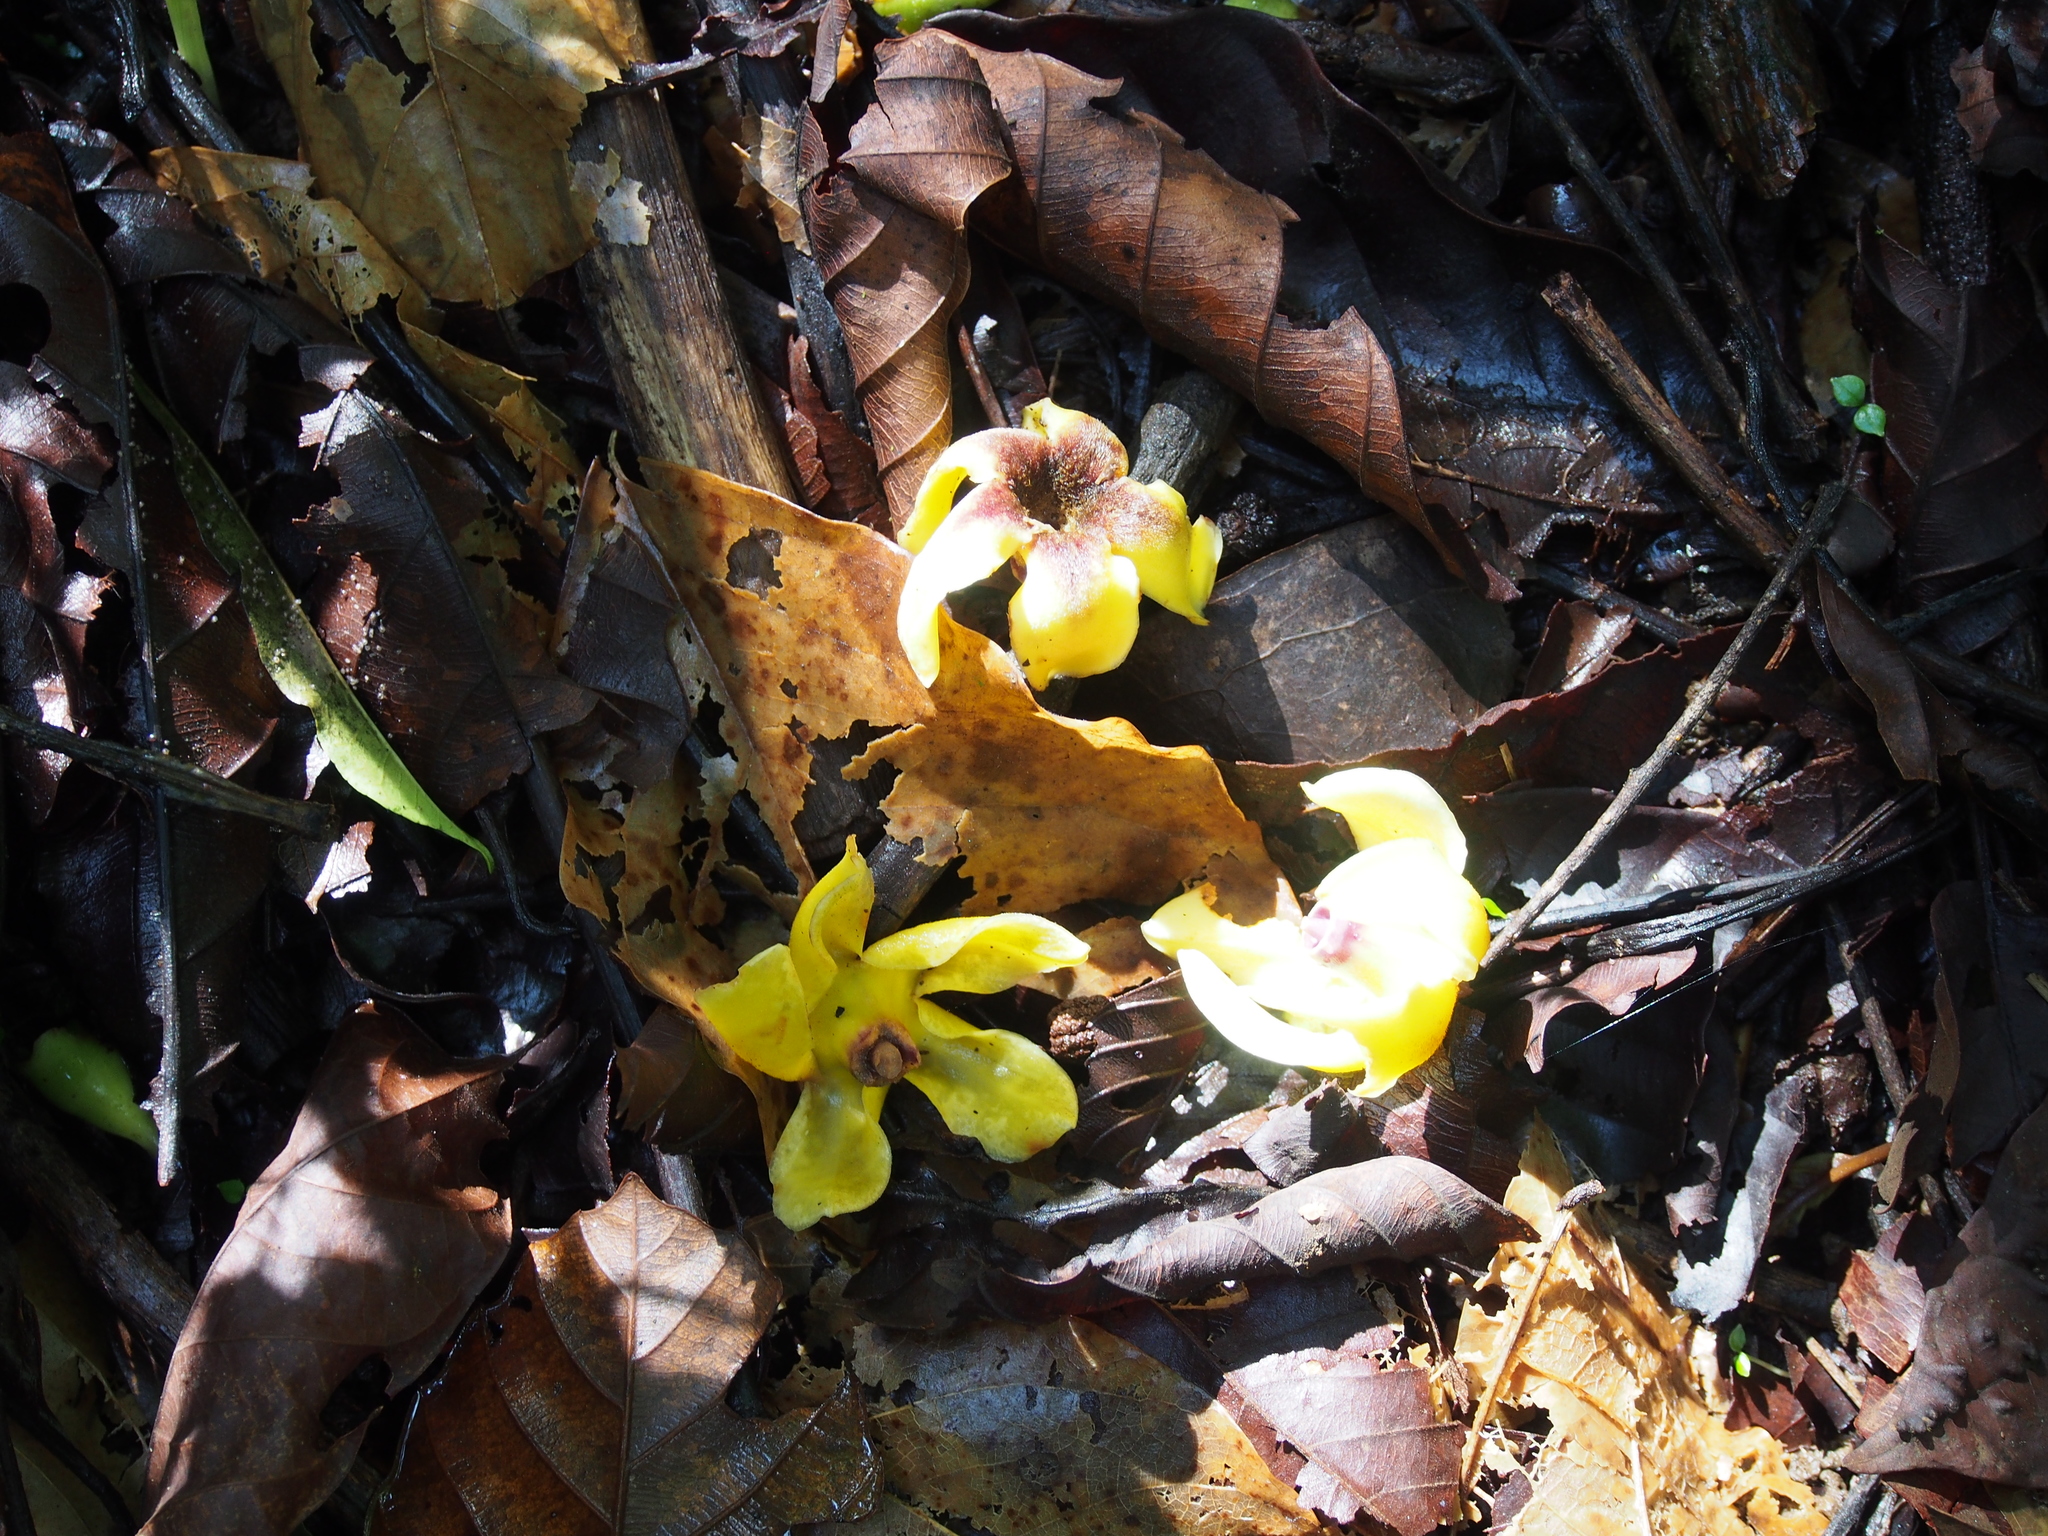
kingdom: Plantae
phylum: Tracheophyta
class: Magnoliopsida
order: Gentianales
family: Rubiaceae
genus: Genipa
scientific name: Genipa americana
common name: Genipap
